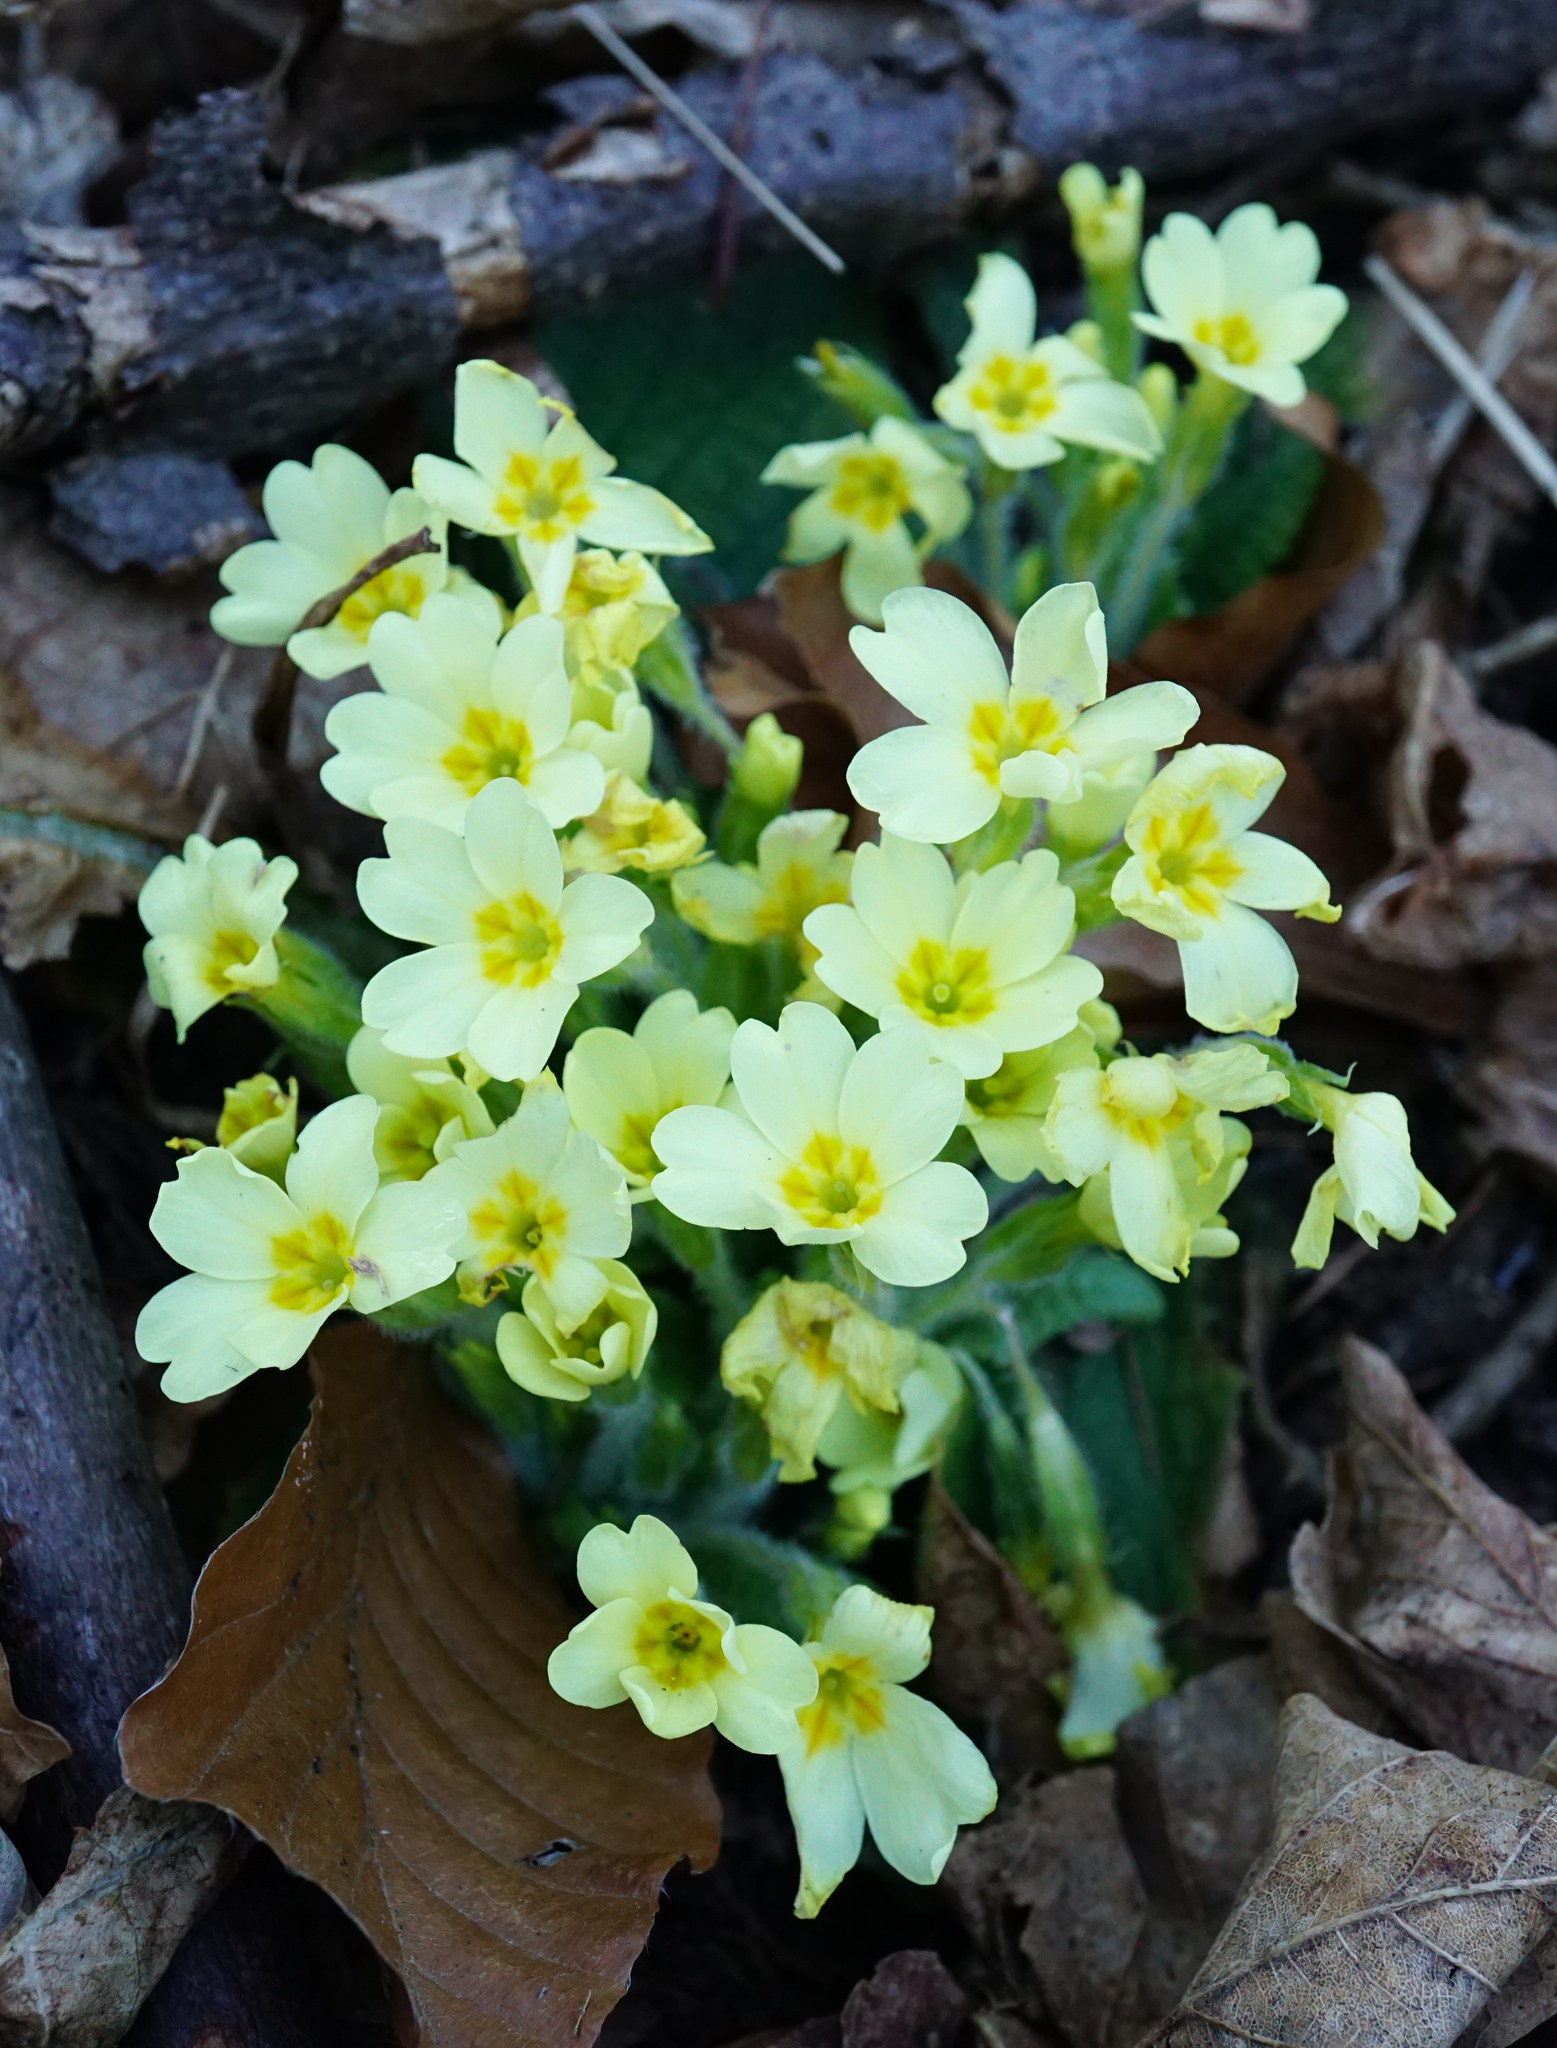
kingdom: Plantae
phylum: Tracheophyta
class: Magnoliopsida
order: Ericales
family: Primulaceae
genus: Primula
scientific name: Primula vulgaris
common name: Primrose
